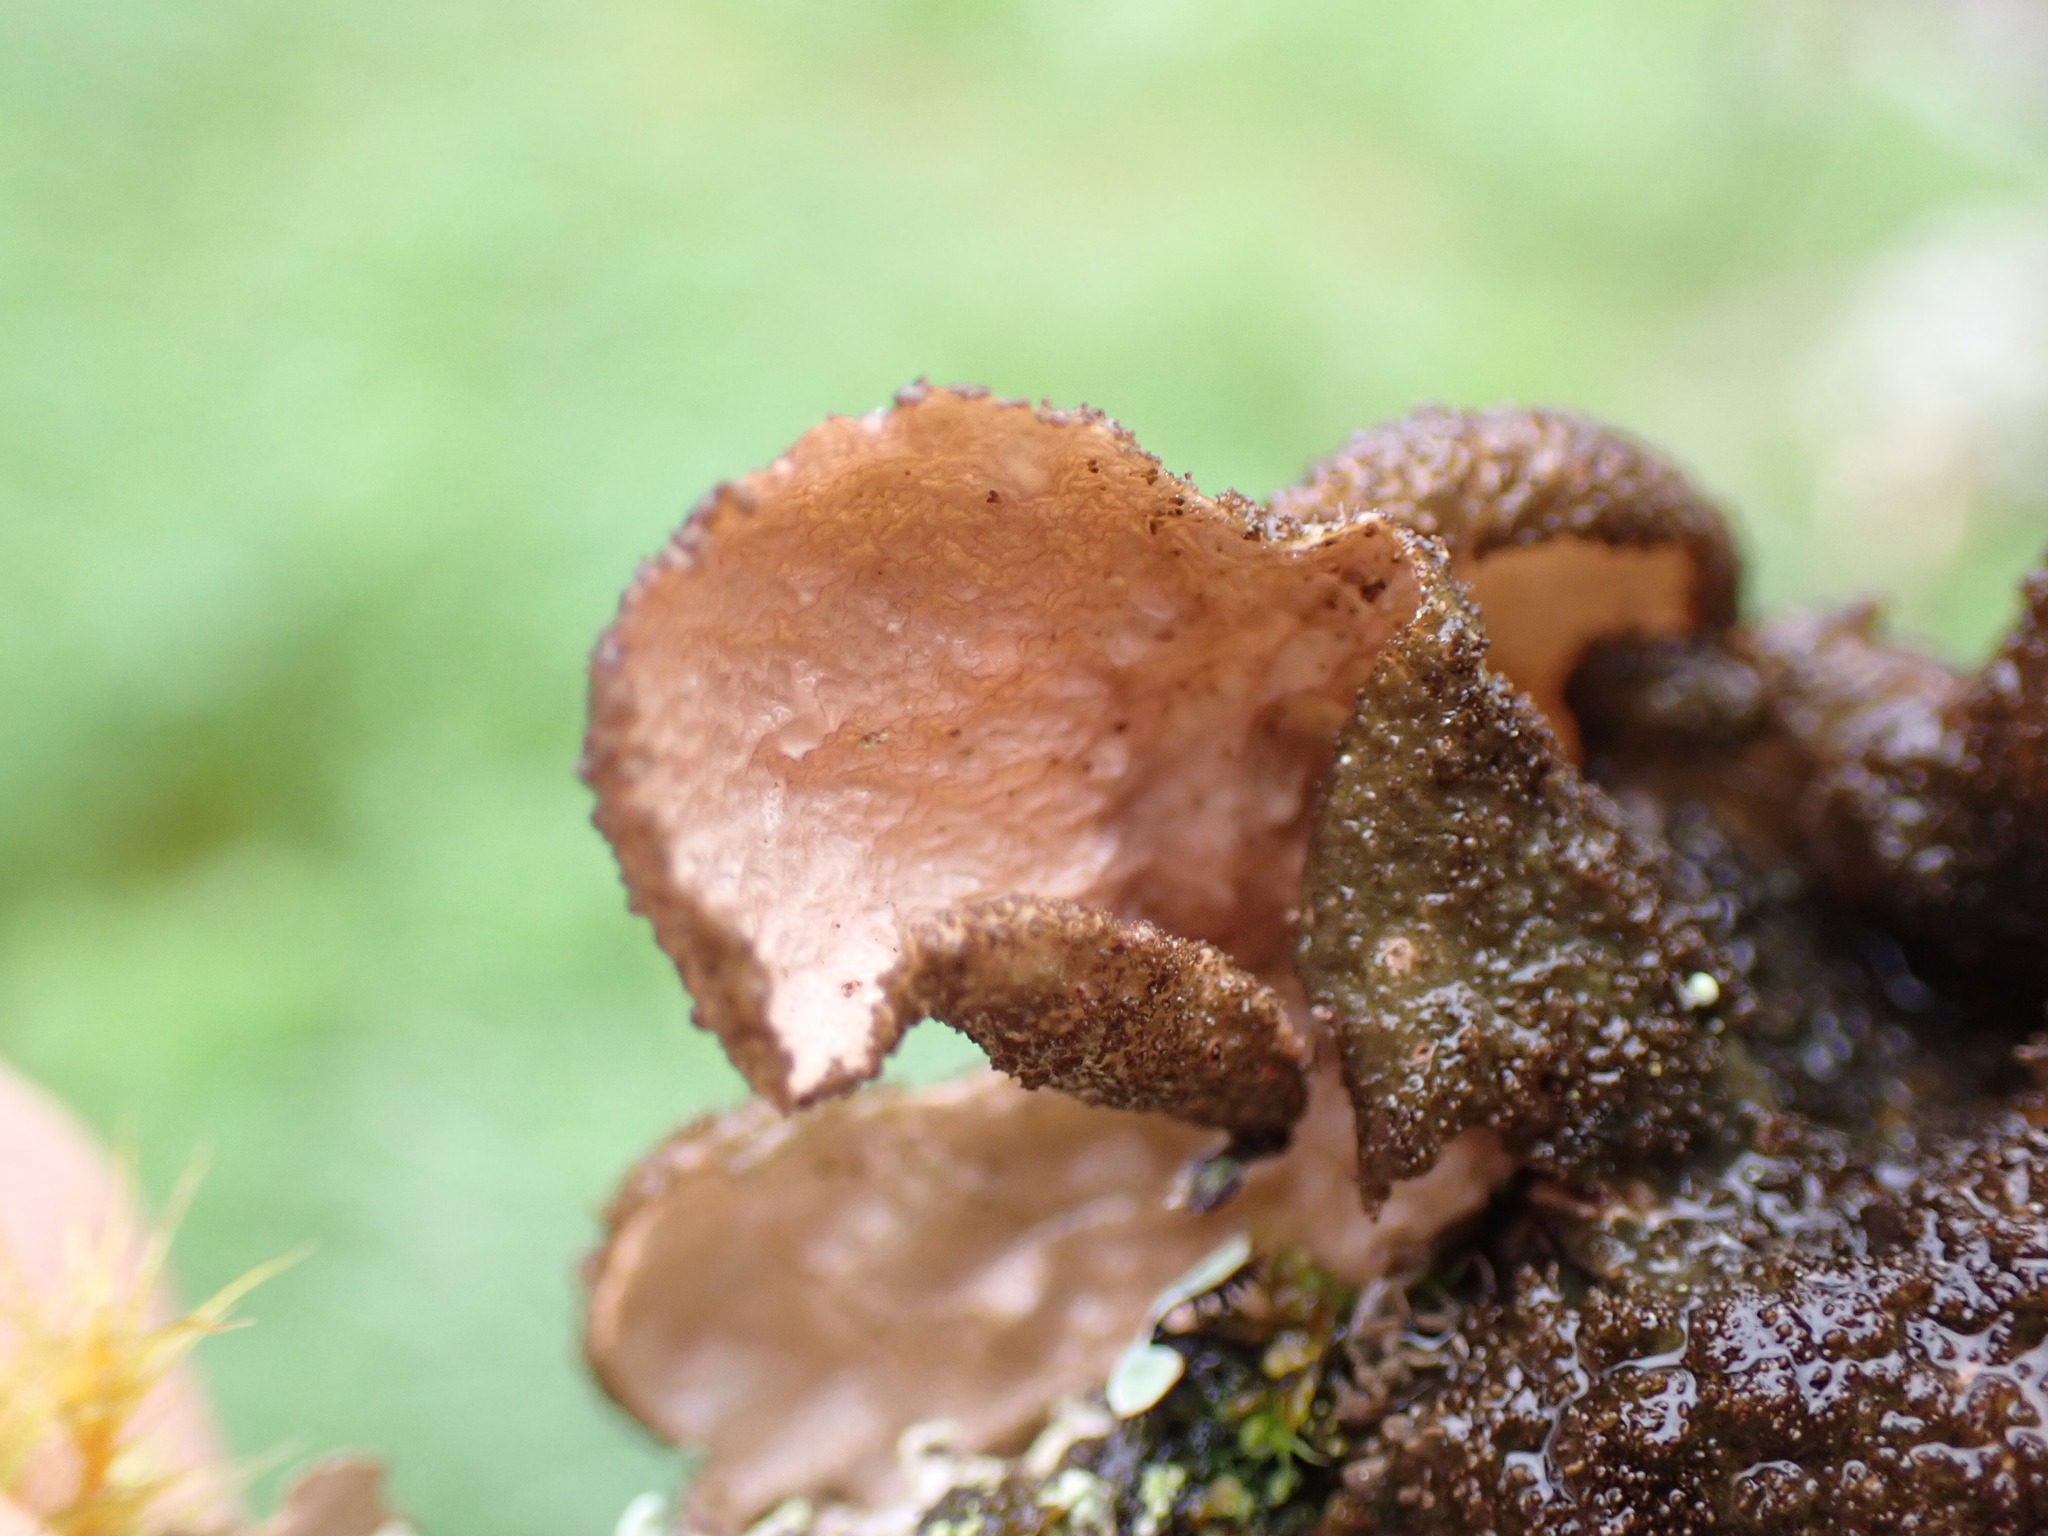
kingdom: Fungi
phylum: Ascomycota
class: Lecanoromycetes
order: Peltigerales
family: Lobariaceae
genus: Sticta
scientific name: Sticta fuliginosa
